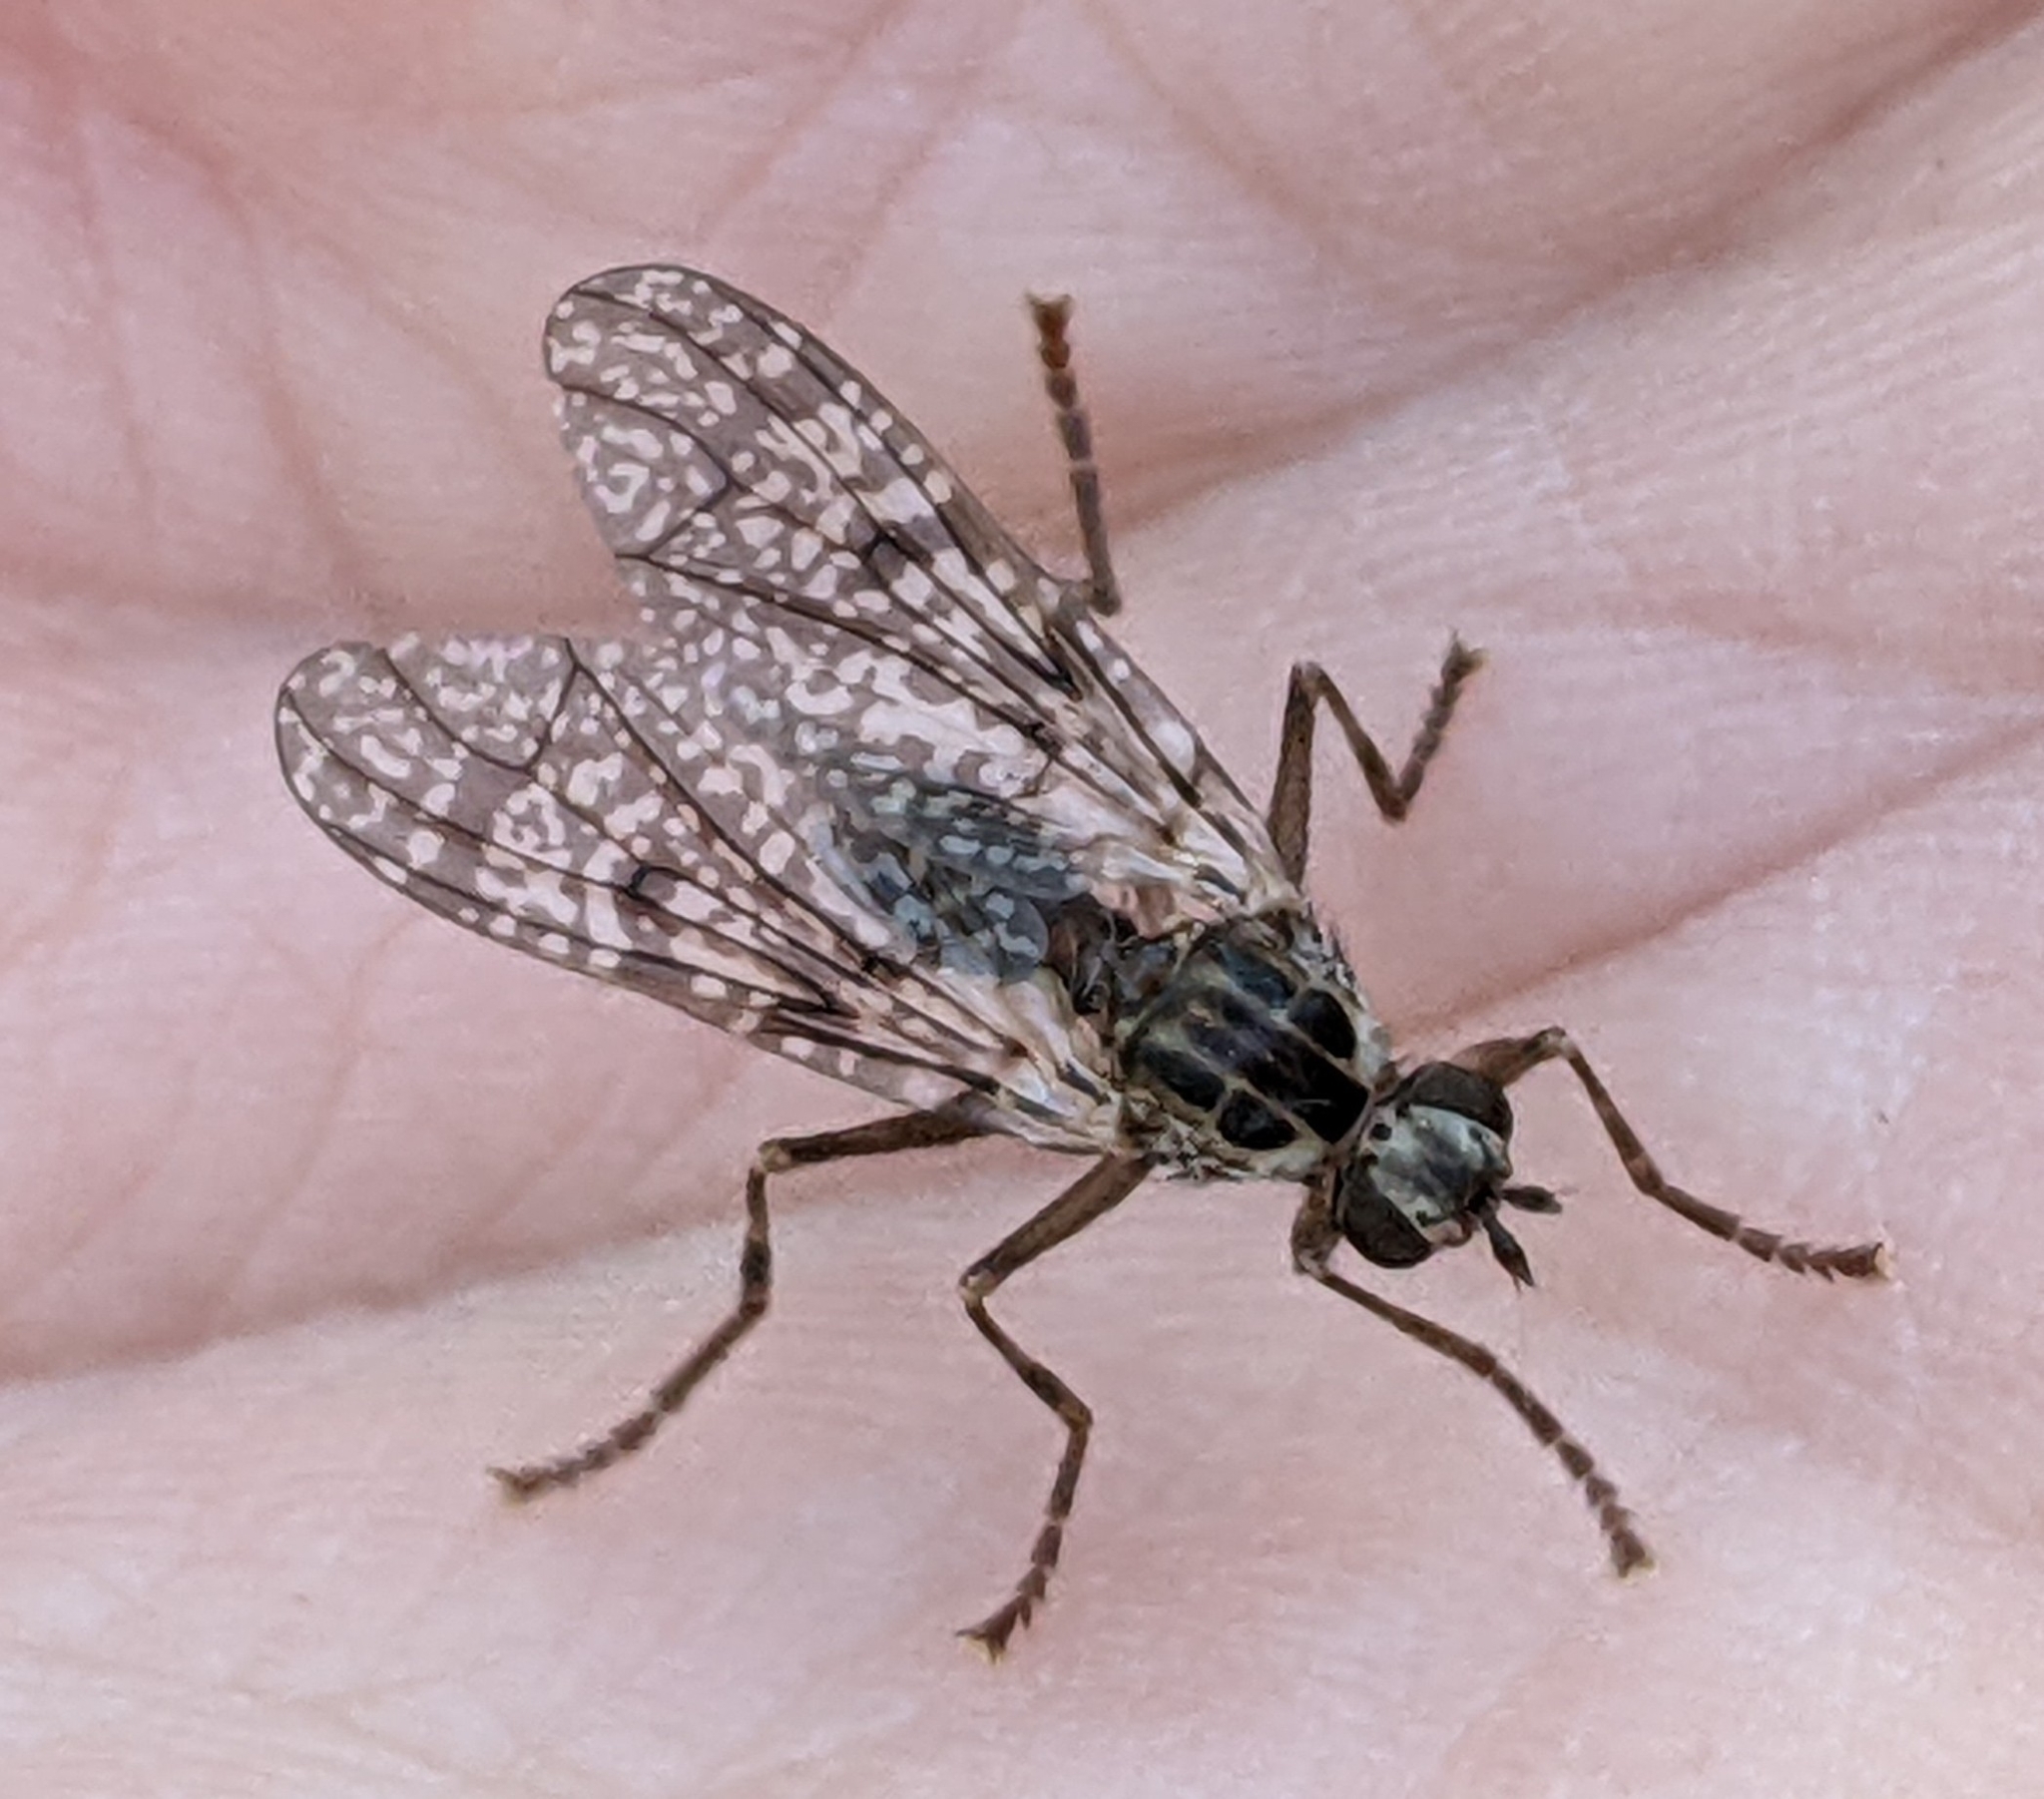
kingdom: Animalia
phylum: Arthropoda
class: Insecta
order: Diptera
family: Pyrgotidae
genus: Pyrgota
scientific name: Pyrgota shewelli
